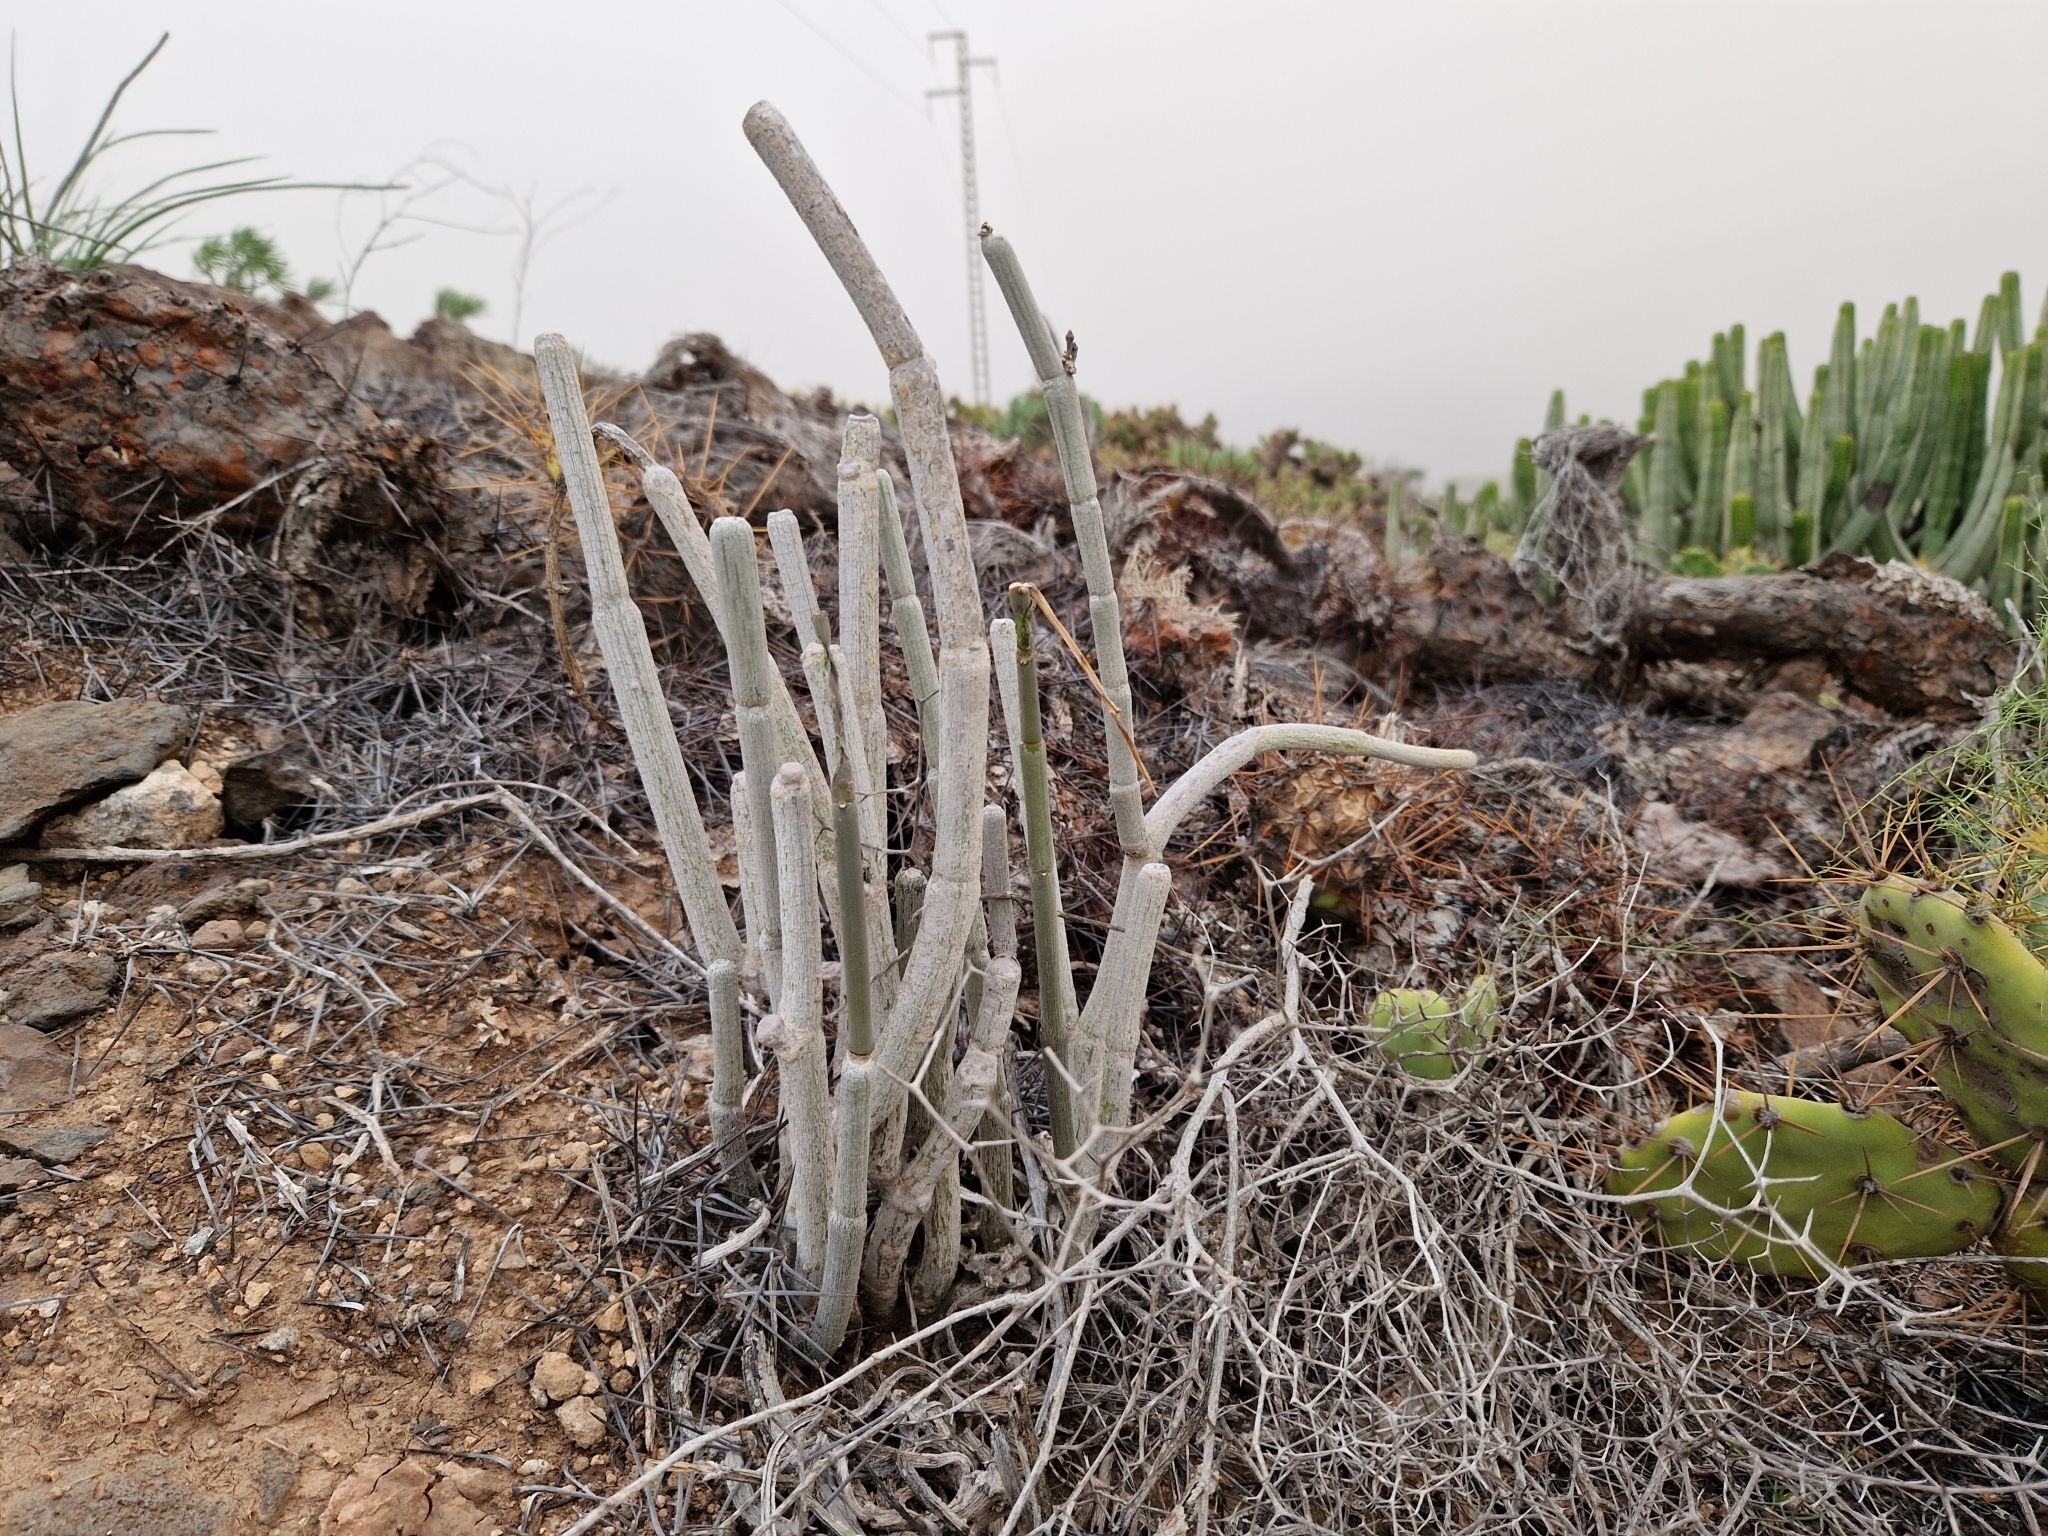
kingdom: Plantae
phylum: Tracheophyta
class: Magnoliopsida
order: Gentianales
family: Apocynaceae
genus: Ceropegia
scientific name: Ceropegia fusca
